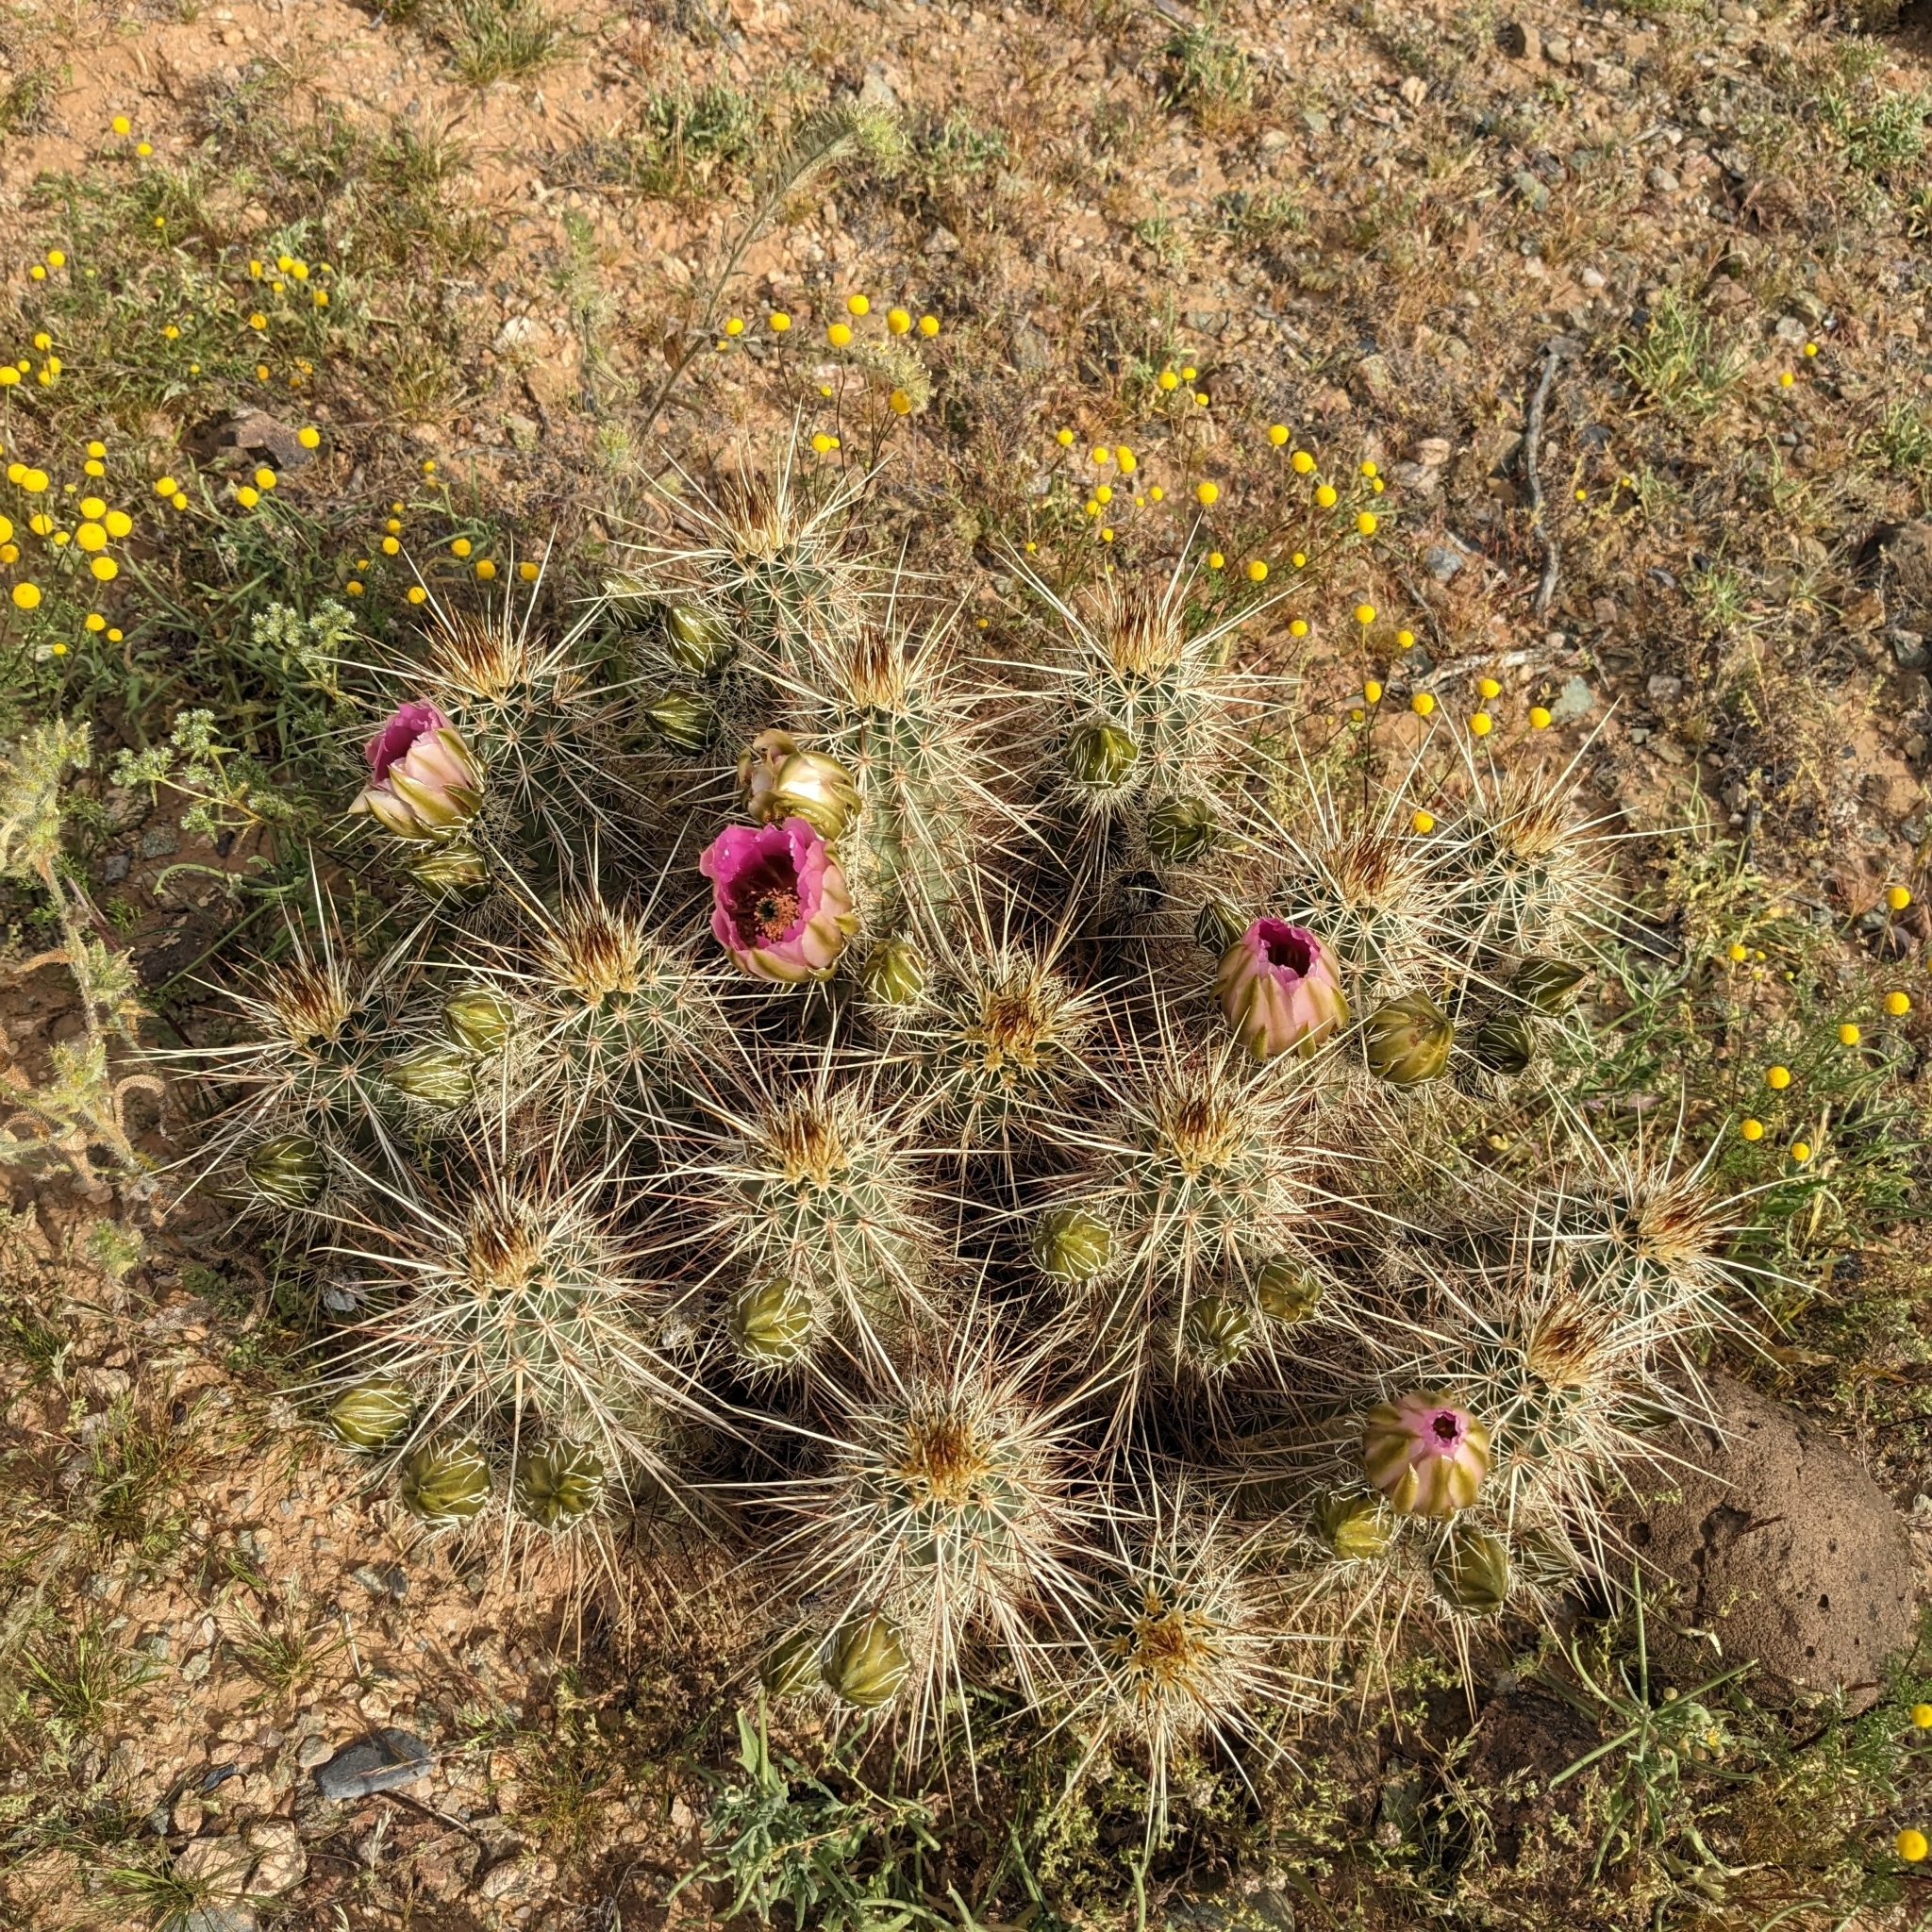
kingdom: Plantae
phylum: Tracheophyta
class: Magnoliopsida
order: Caryophyllales
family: Cactaceae
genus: Echinocereus
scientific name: Echinocereus engelmannii
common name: Engelmann's hedgehog cactus
